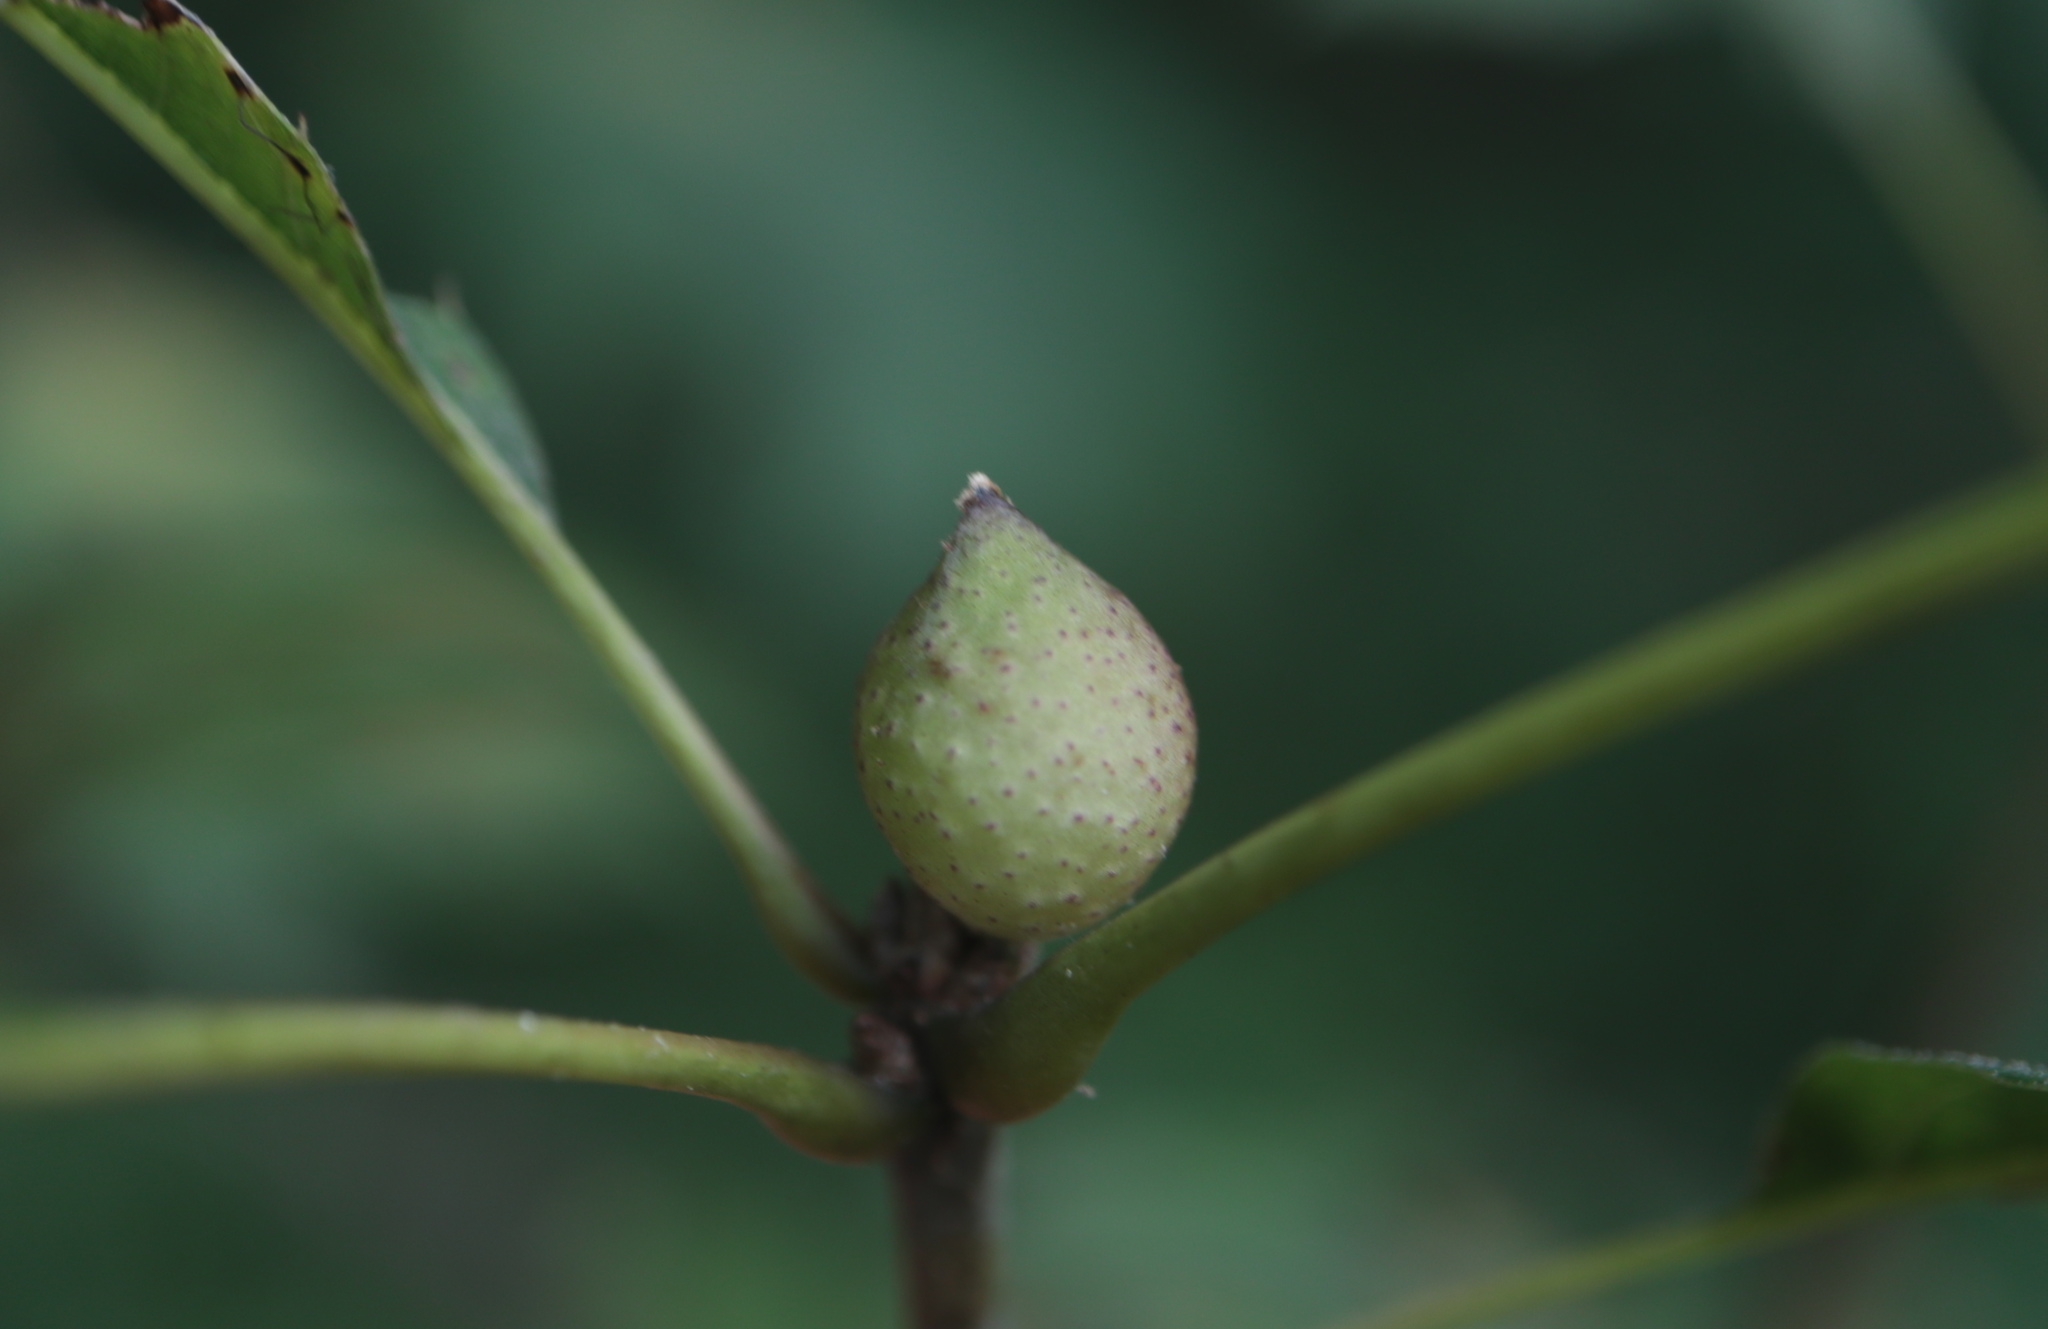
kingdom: Animalia
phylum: Arthropoda
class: Insecta
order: Hymenoptera
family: Cynipidae
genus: Amphibolips
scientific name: Amphibolips
